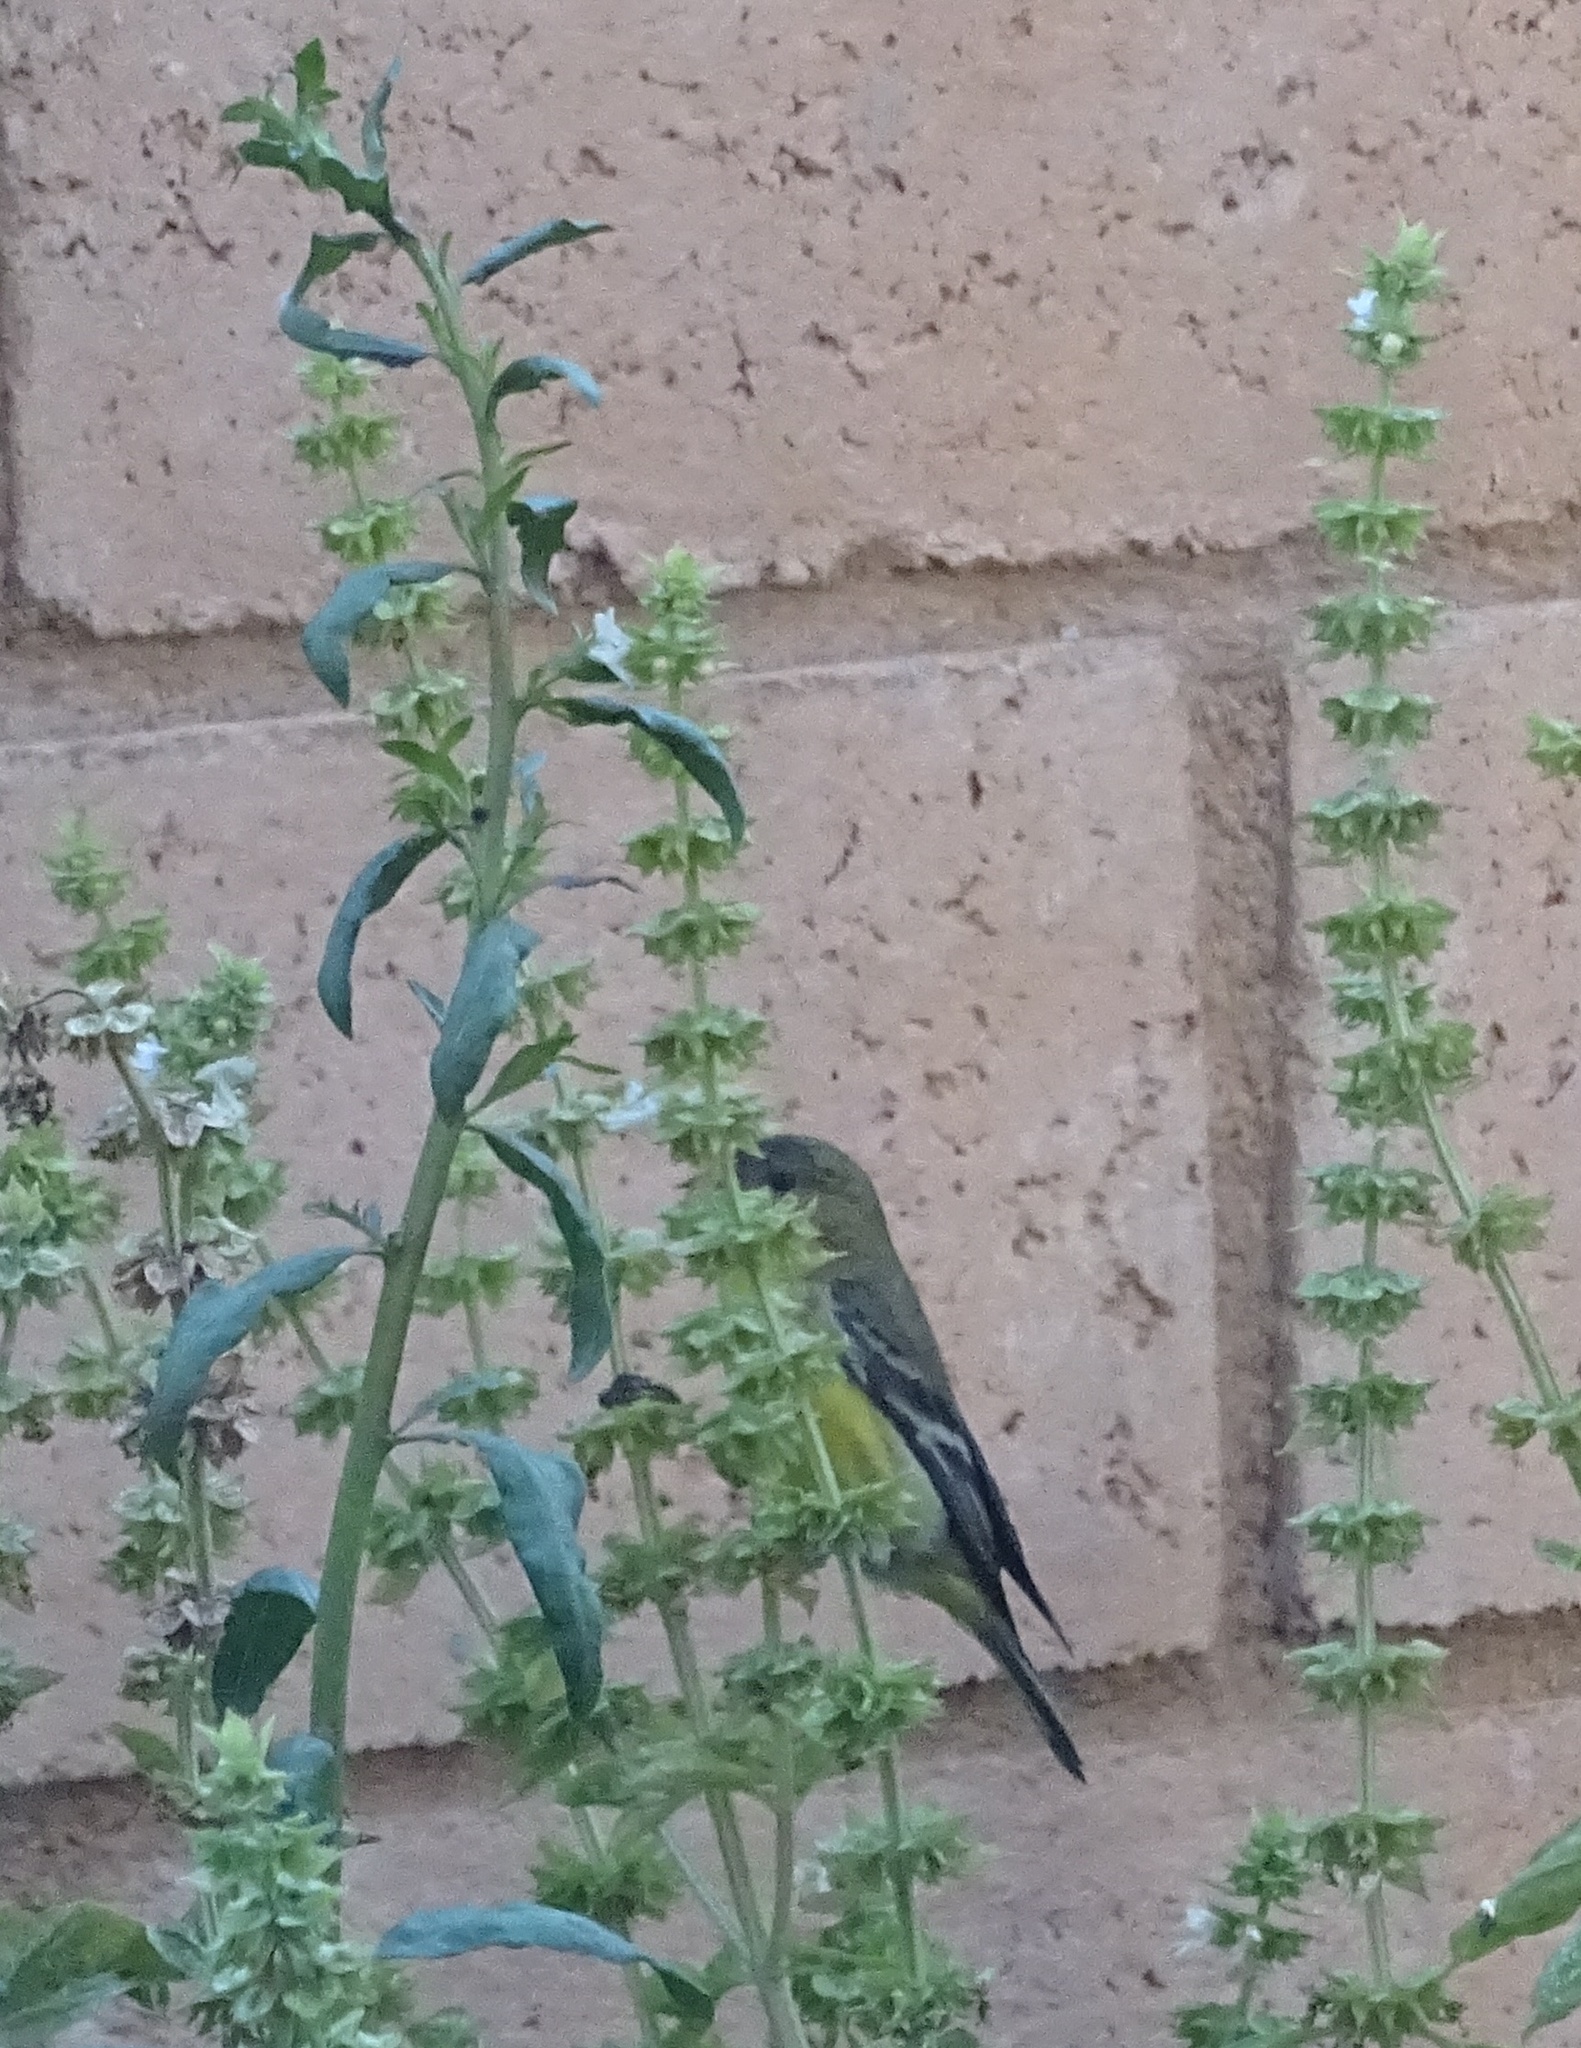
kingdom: Animalia
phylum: Chordata
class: Aves
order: Passeriformes
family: Fringillidae
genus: Spinus
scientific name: Spinus psaltria
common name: Lesser goldfinch
